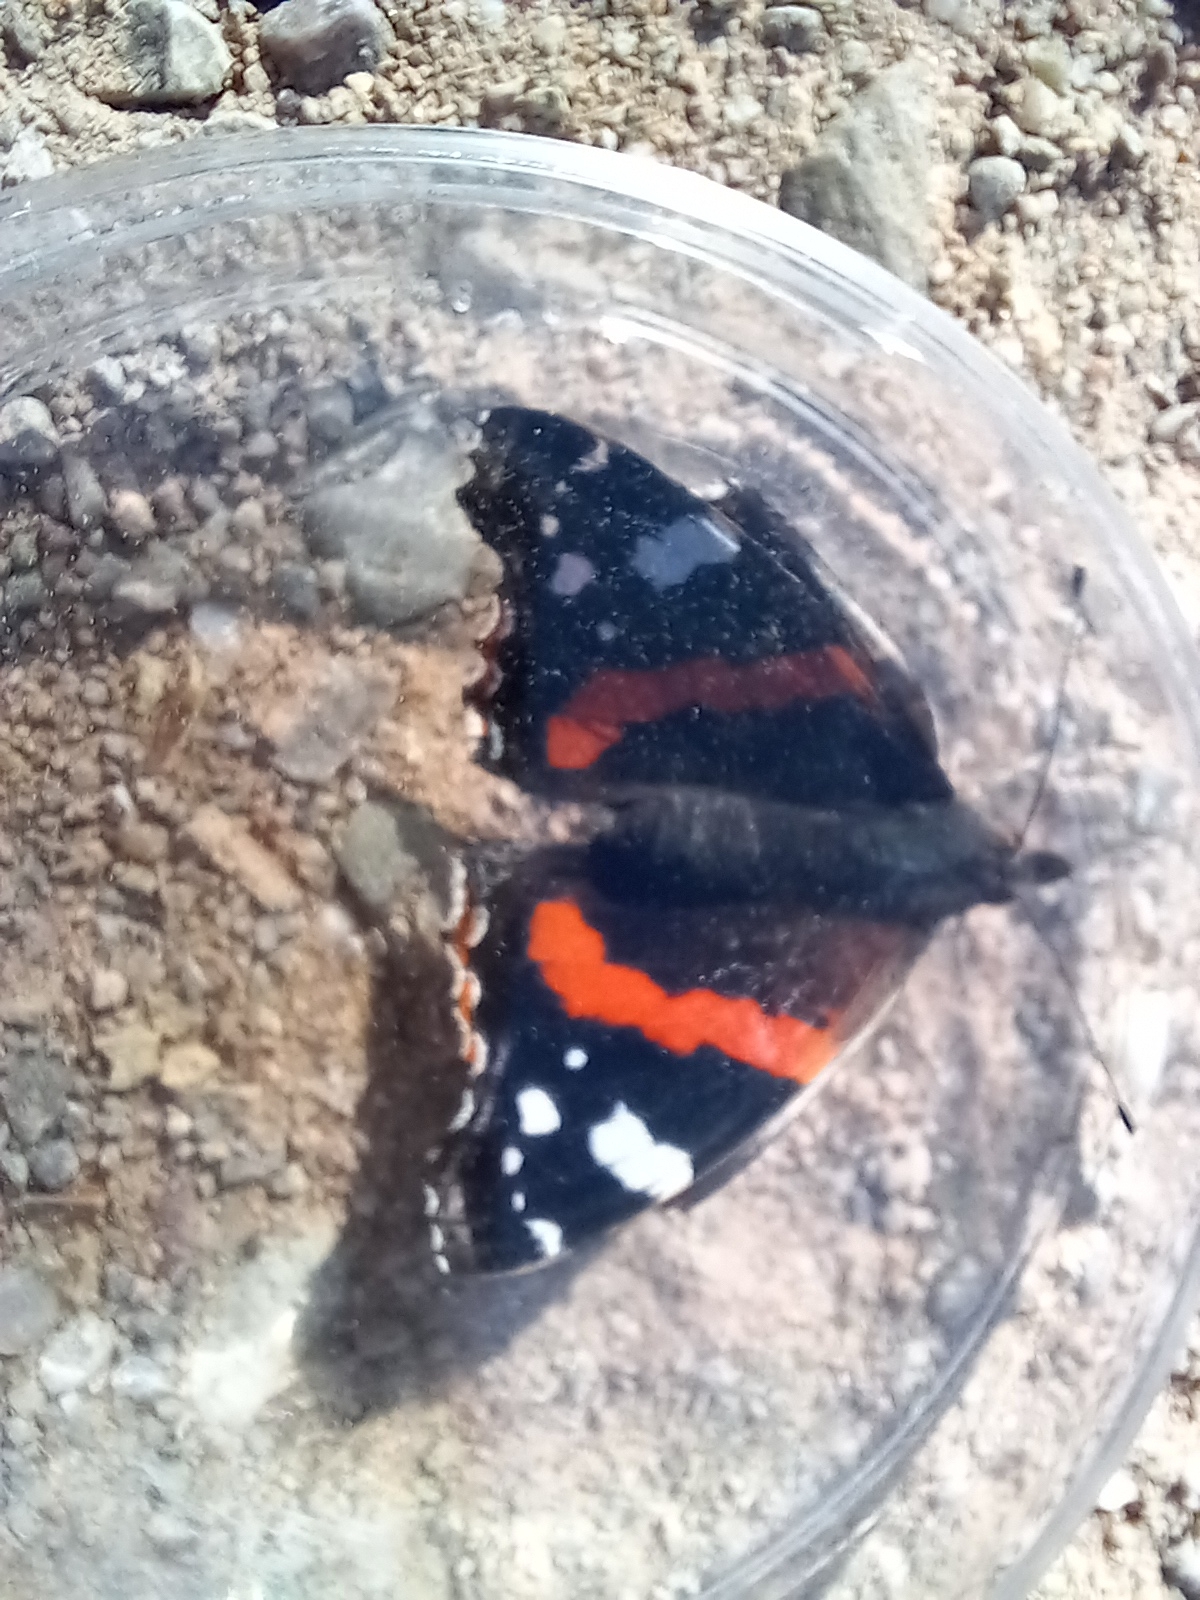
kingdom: Animalia
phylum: Arthropoda
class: Insecta
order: Lepidoptera
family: Nymphalidae
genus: Vanessa
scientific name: Vanessa atalanta
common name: Red admiral
